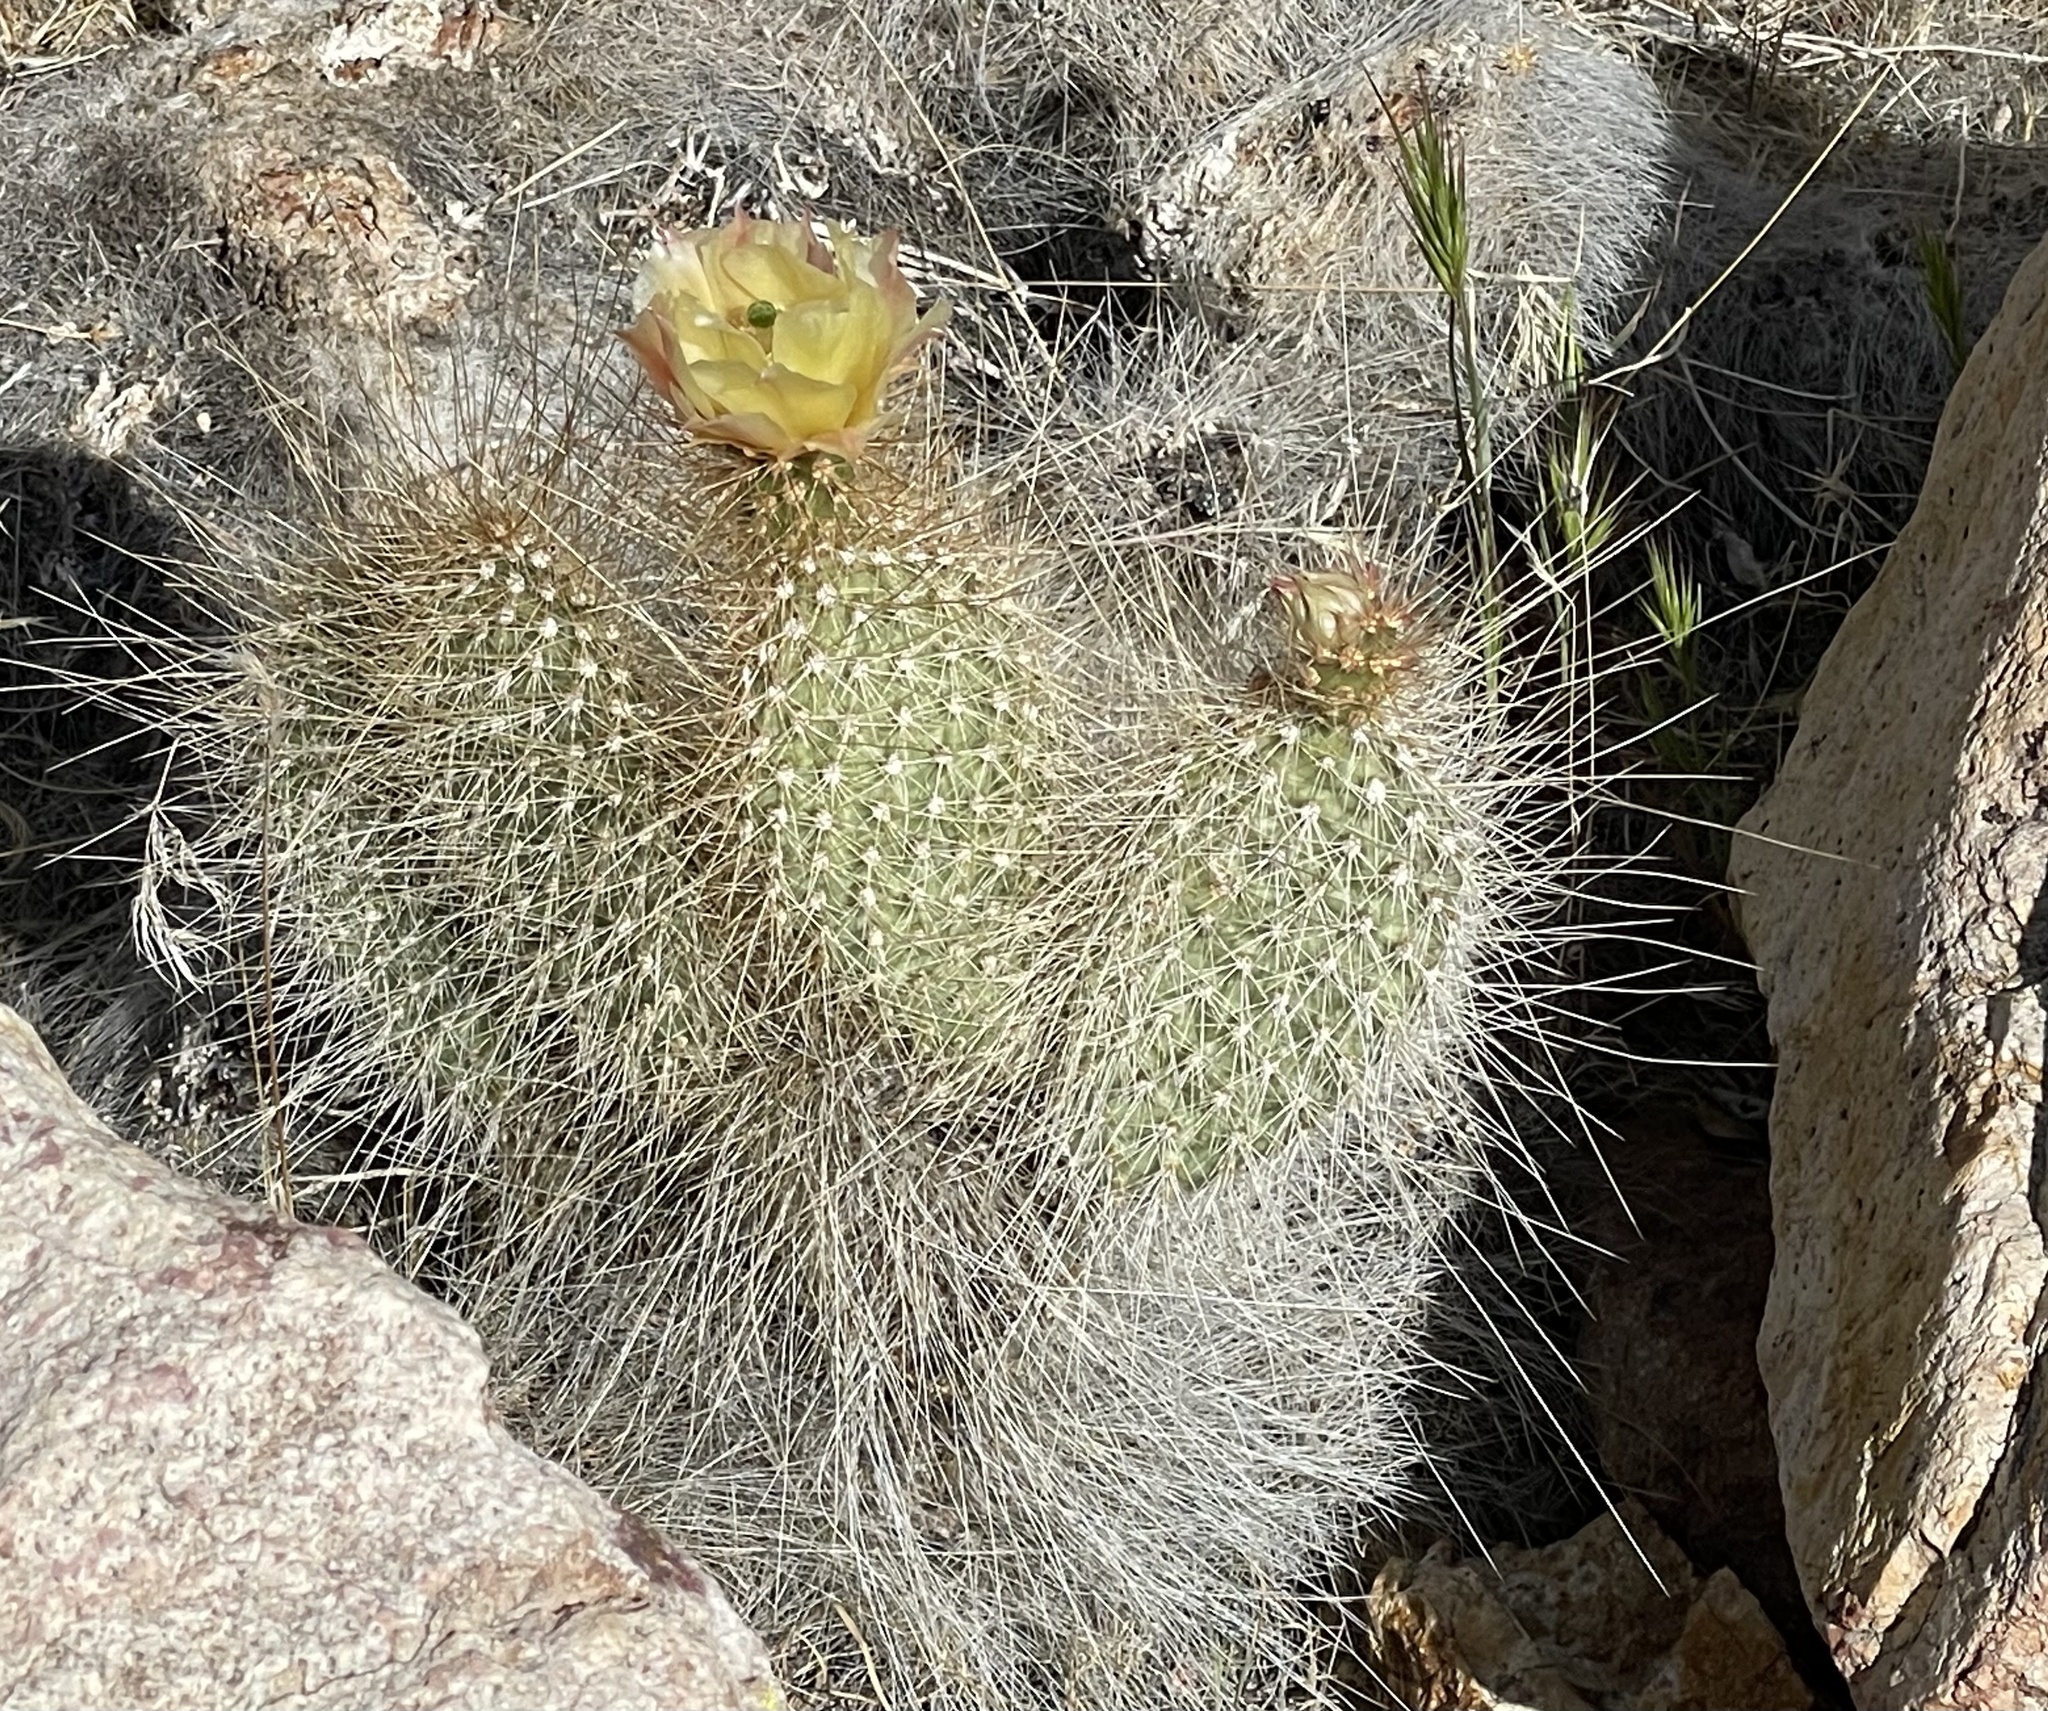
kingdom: Plantae
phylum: Tracheophyta
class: Magnoliopsida
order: Caryophyllales
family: Cactaceae
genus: Opuntia
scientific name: Opuntia polyacantha
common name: Plains prickly-pear
